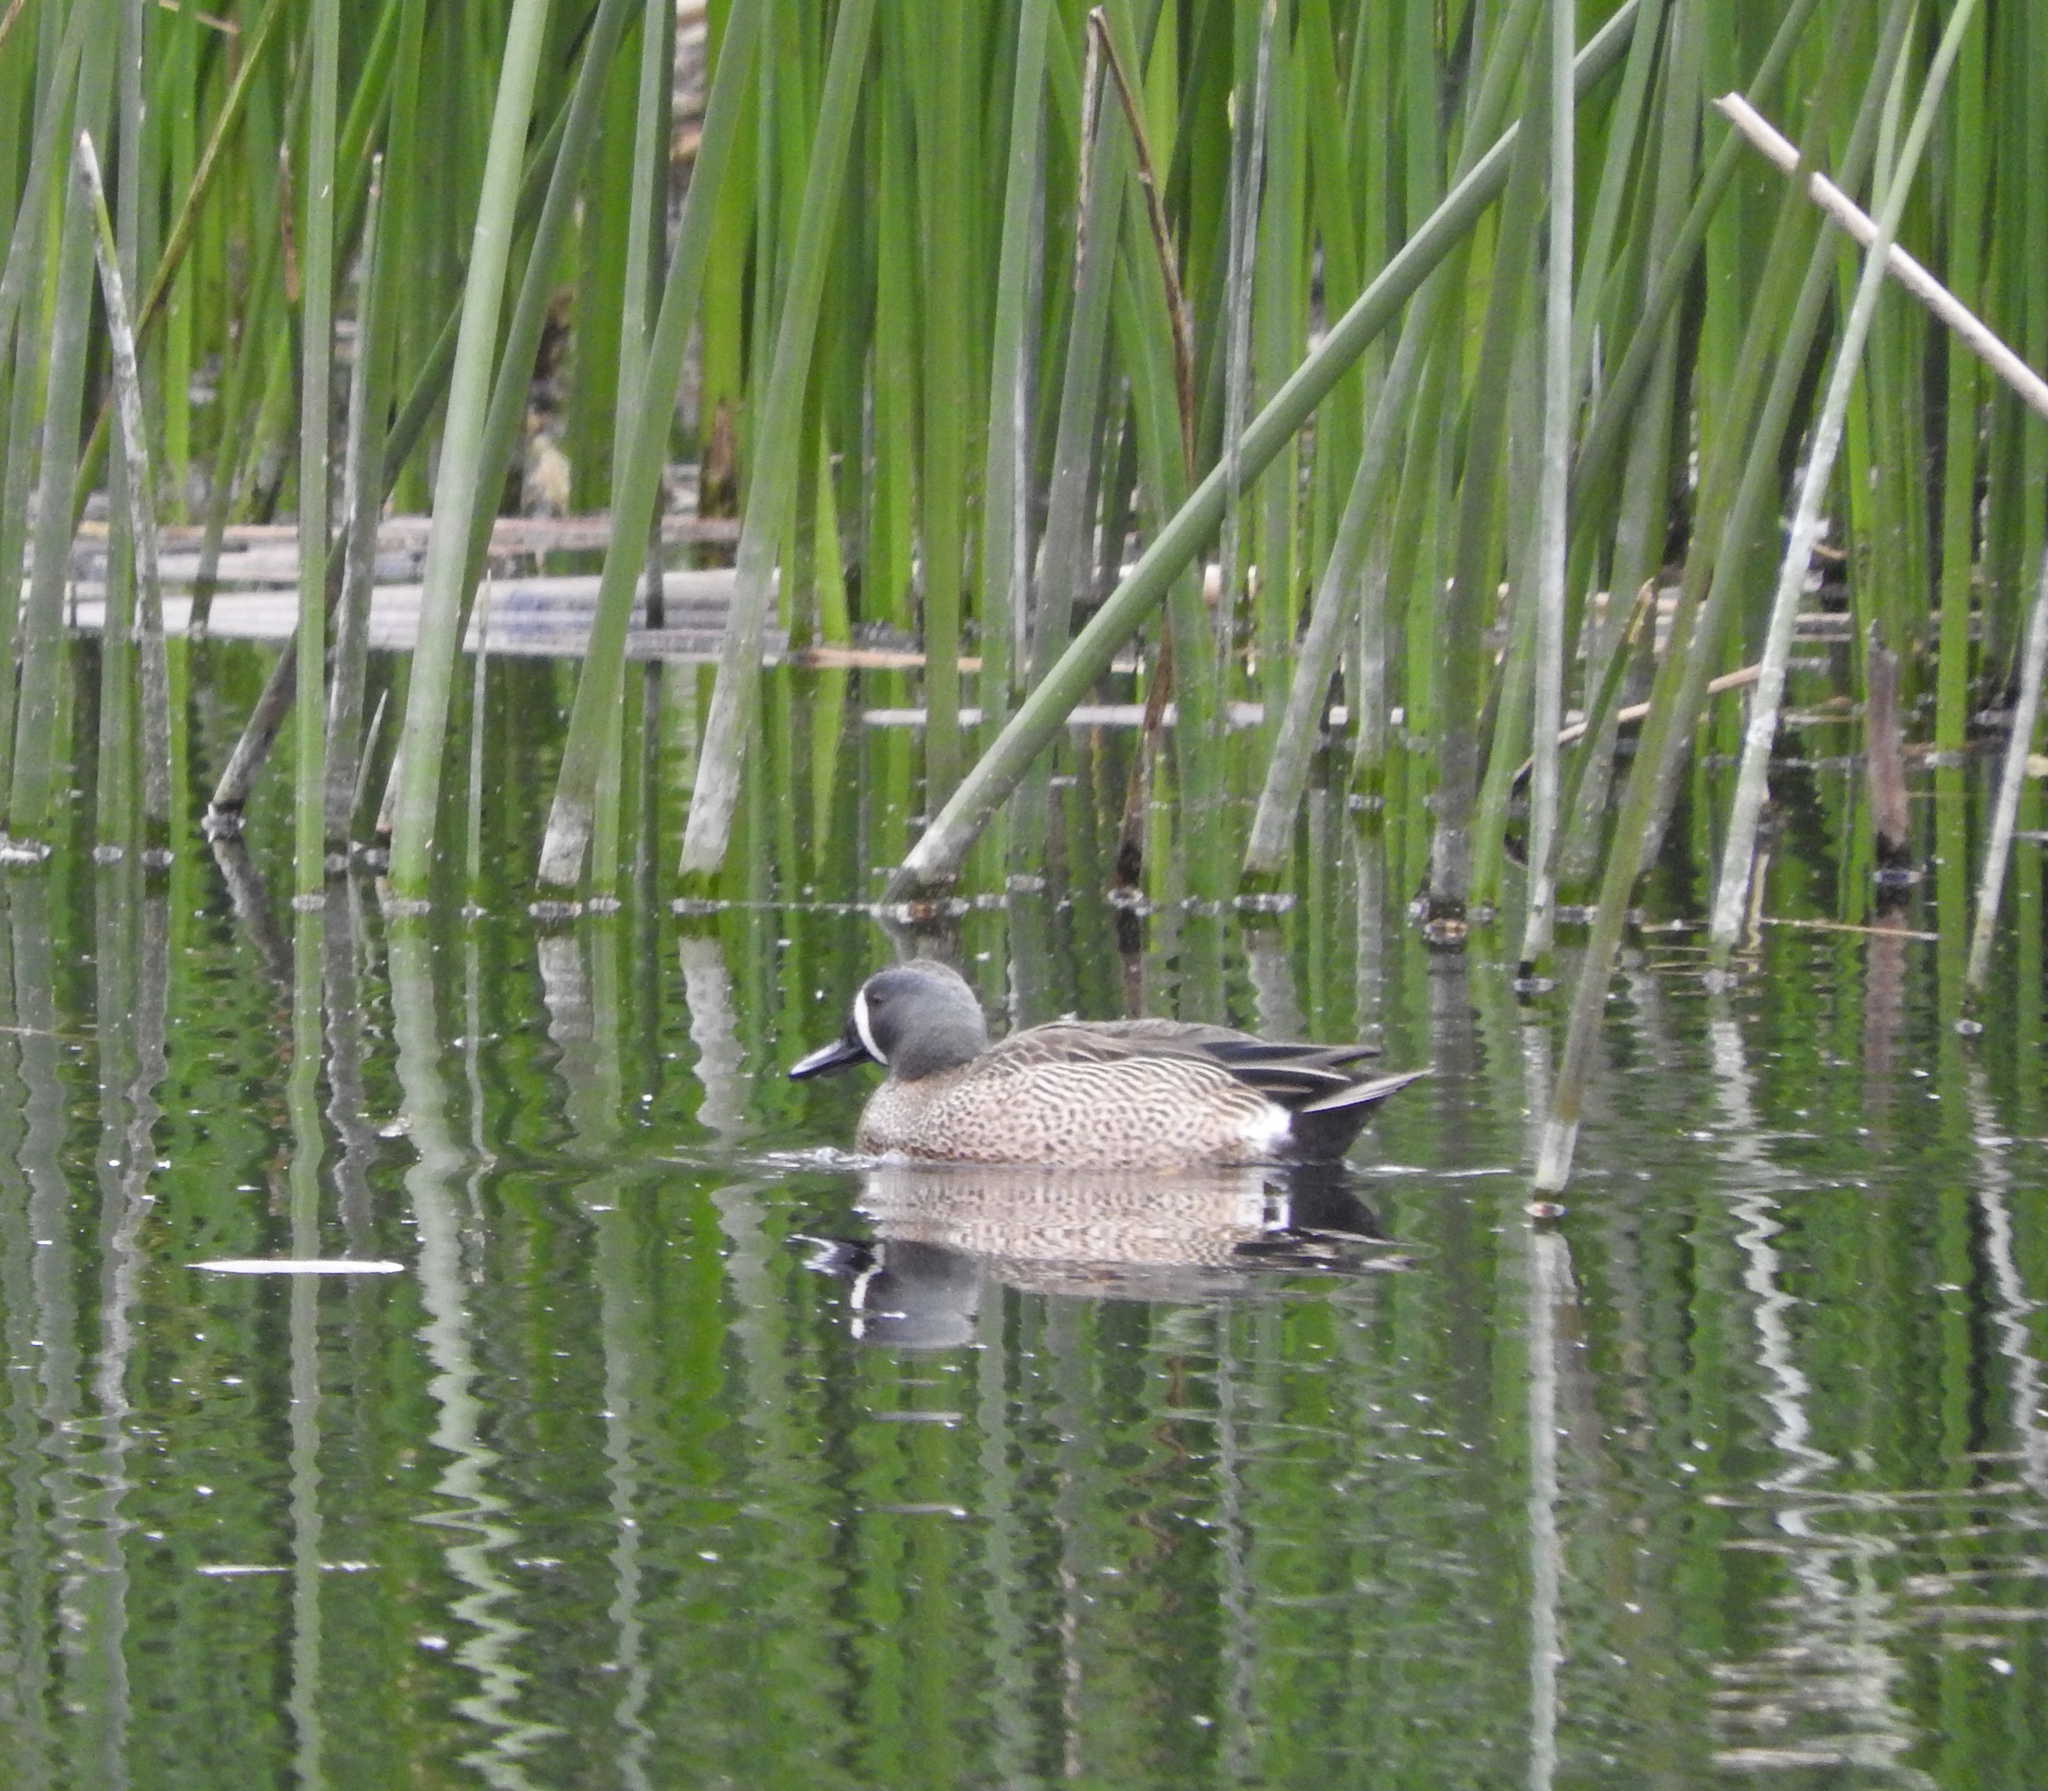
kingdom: Animalia
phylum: Chordata
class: Aves
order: Anseriformes
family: Anatidae
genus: Spatula
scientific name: Spatula discors
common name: Blue-winged teal
